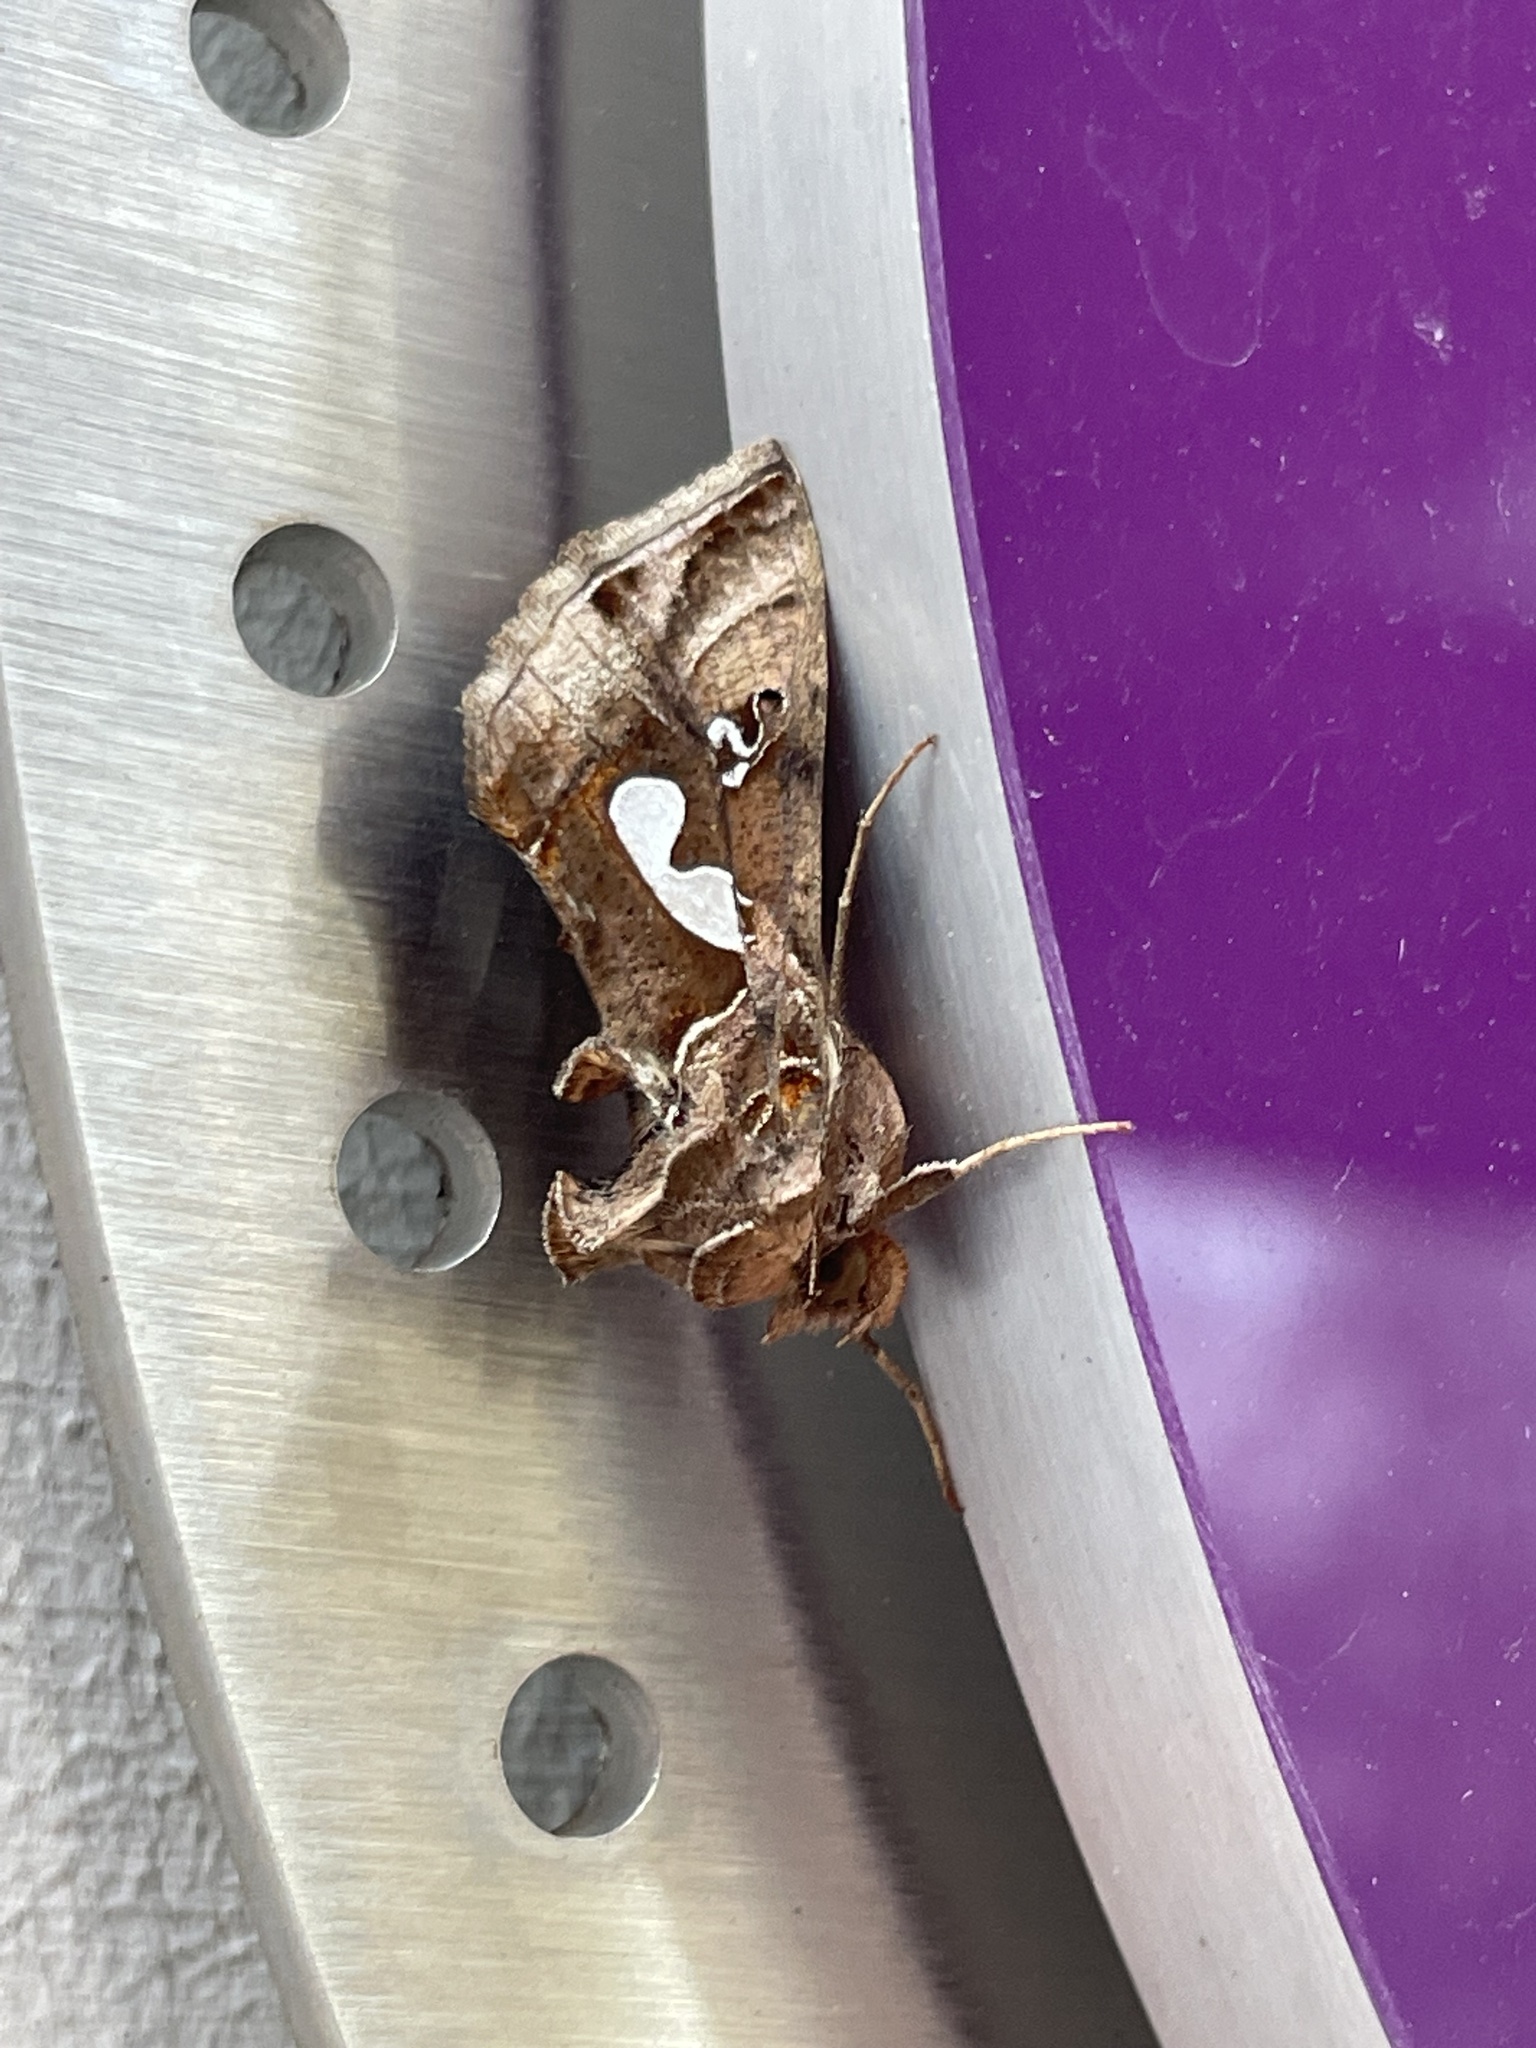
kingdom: Animalia
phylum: Arthropoda
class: Insecta
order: Lepidoptera
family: Noctuidae
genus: Megalographa
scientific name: Megalographa biloba
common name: Cutworm
